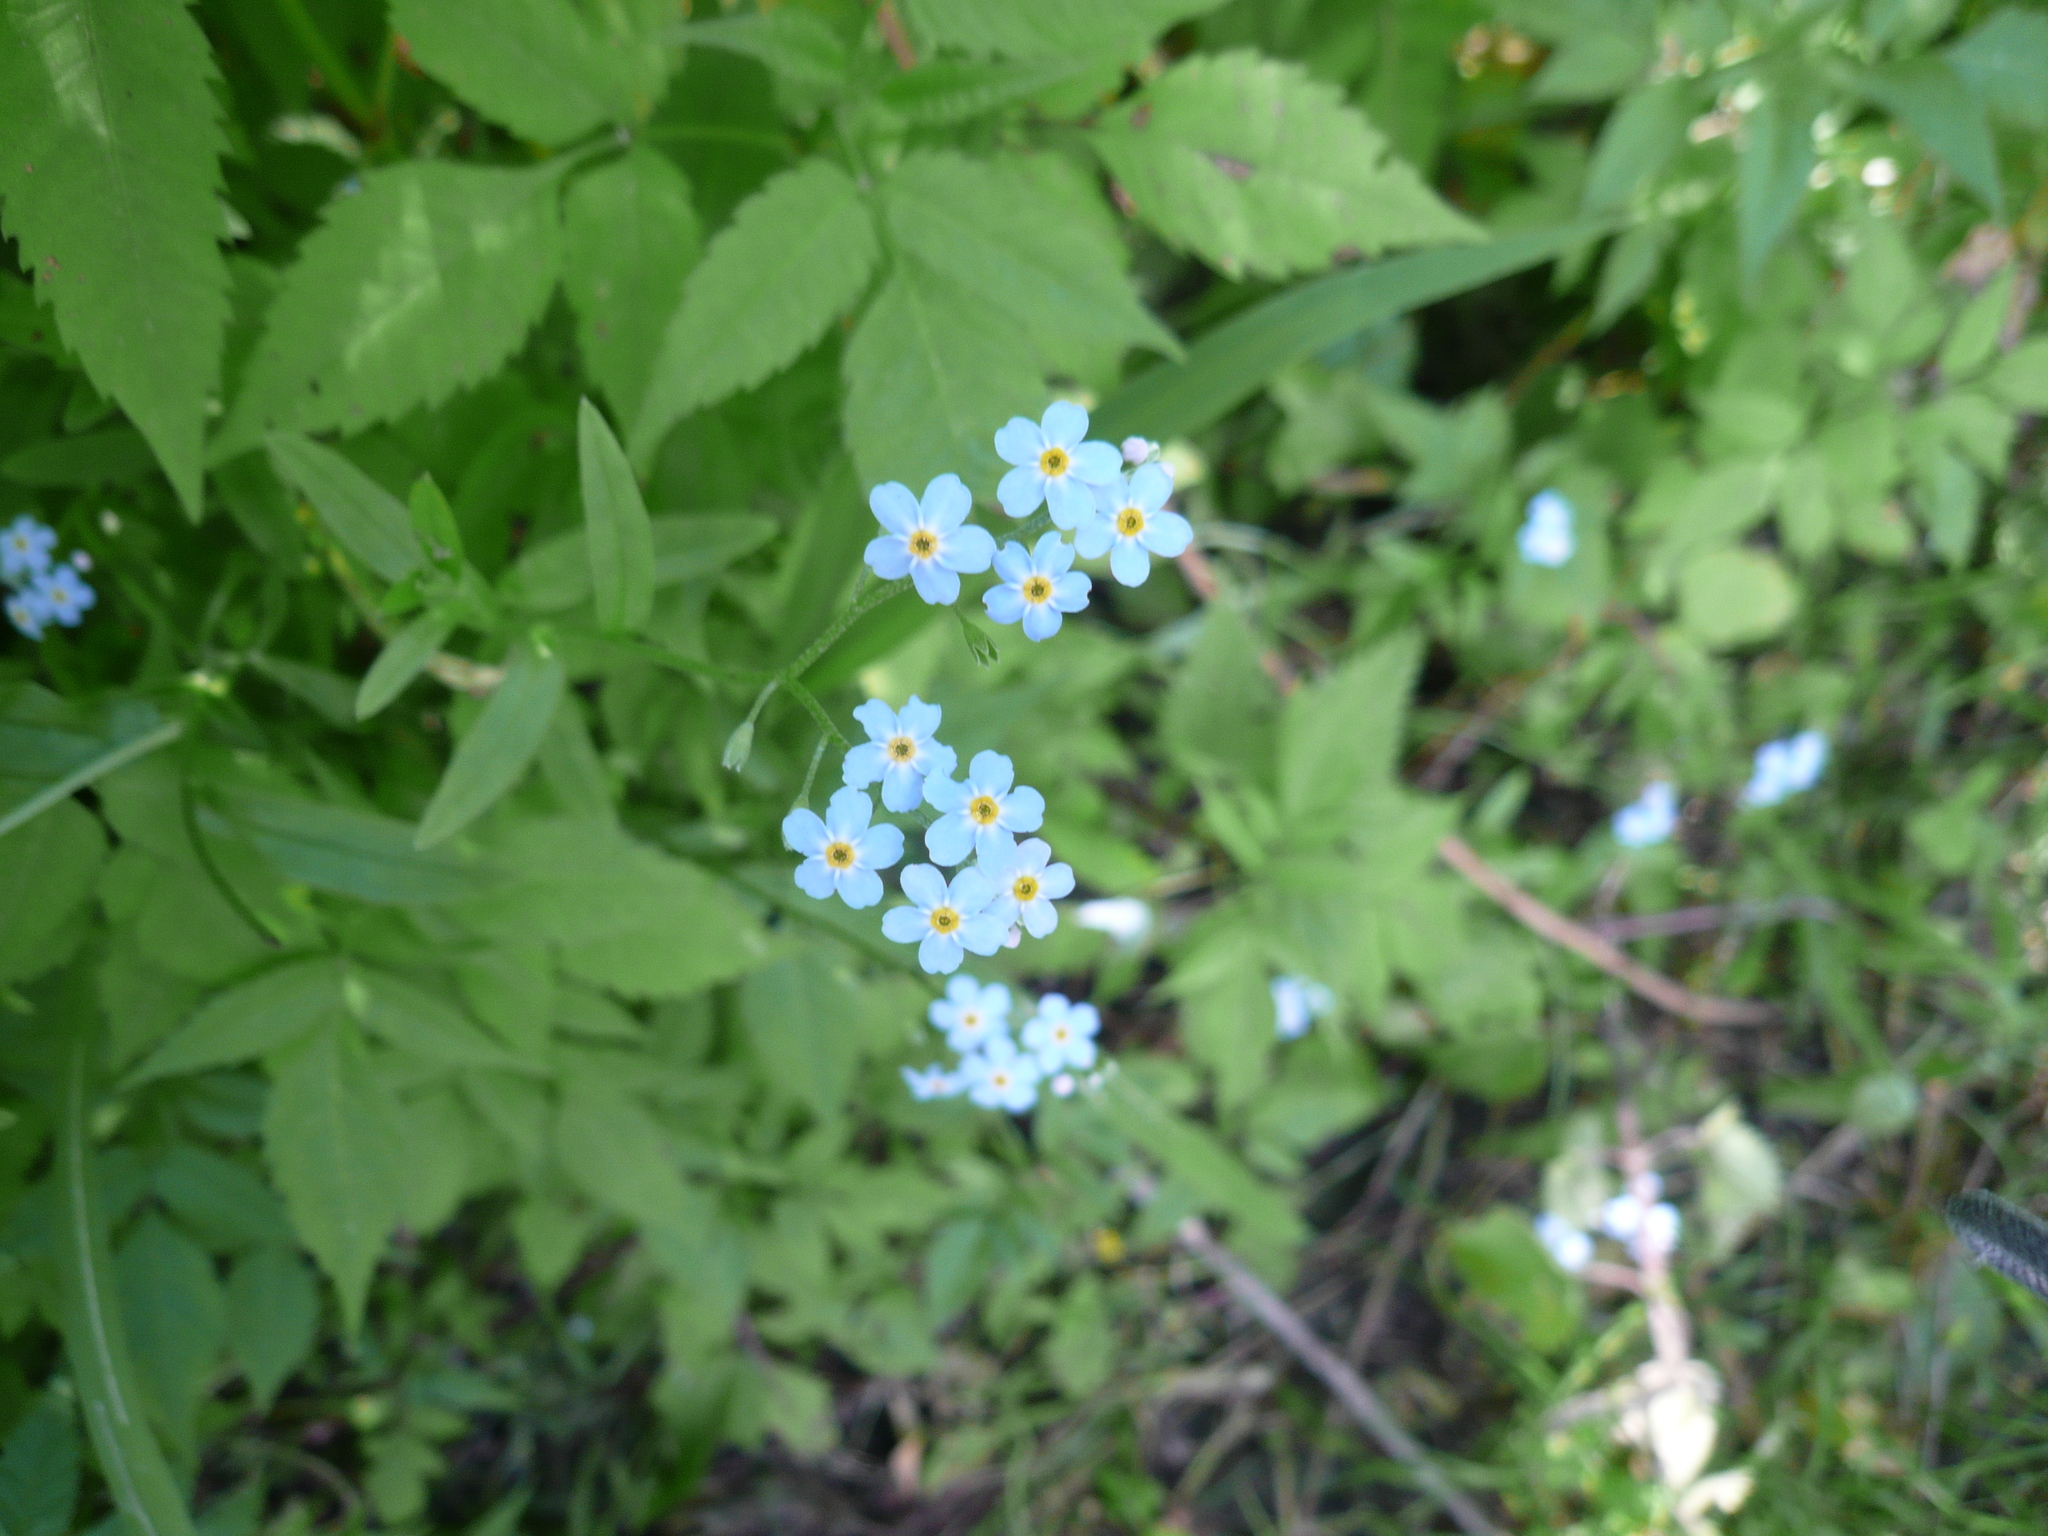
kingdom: Plantae
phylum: Tracheophyta
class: Magnoliopsida
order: Boraginales
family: Boraginaceae
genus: Myosotis
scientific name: Myosotis scorpioides
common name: Water forget-me-not
